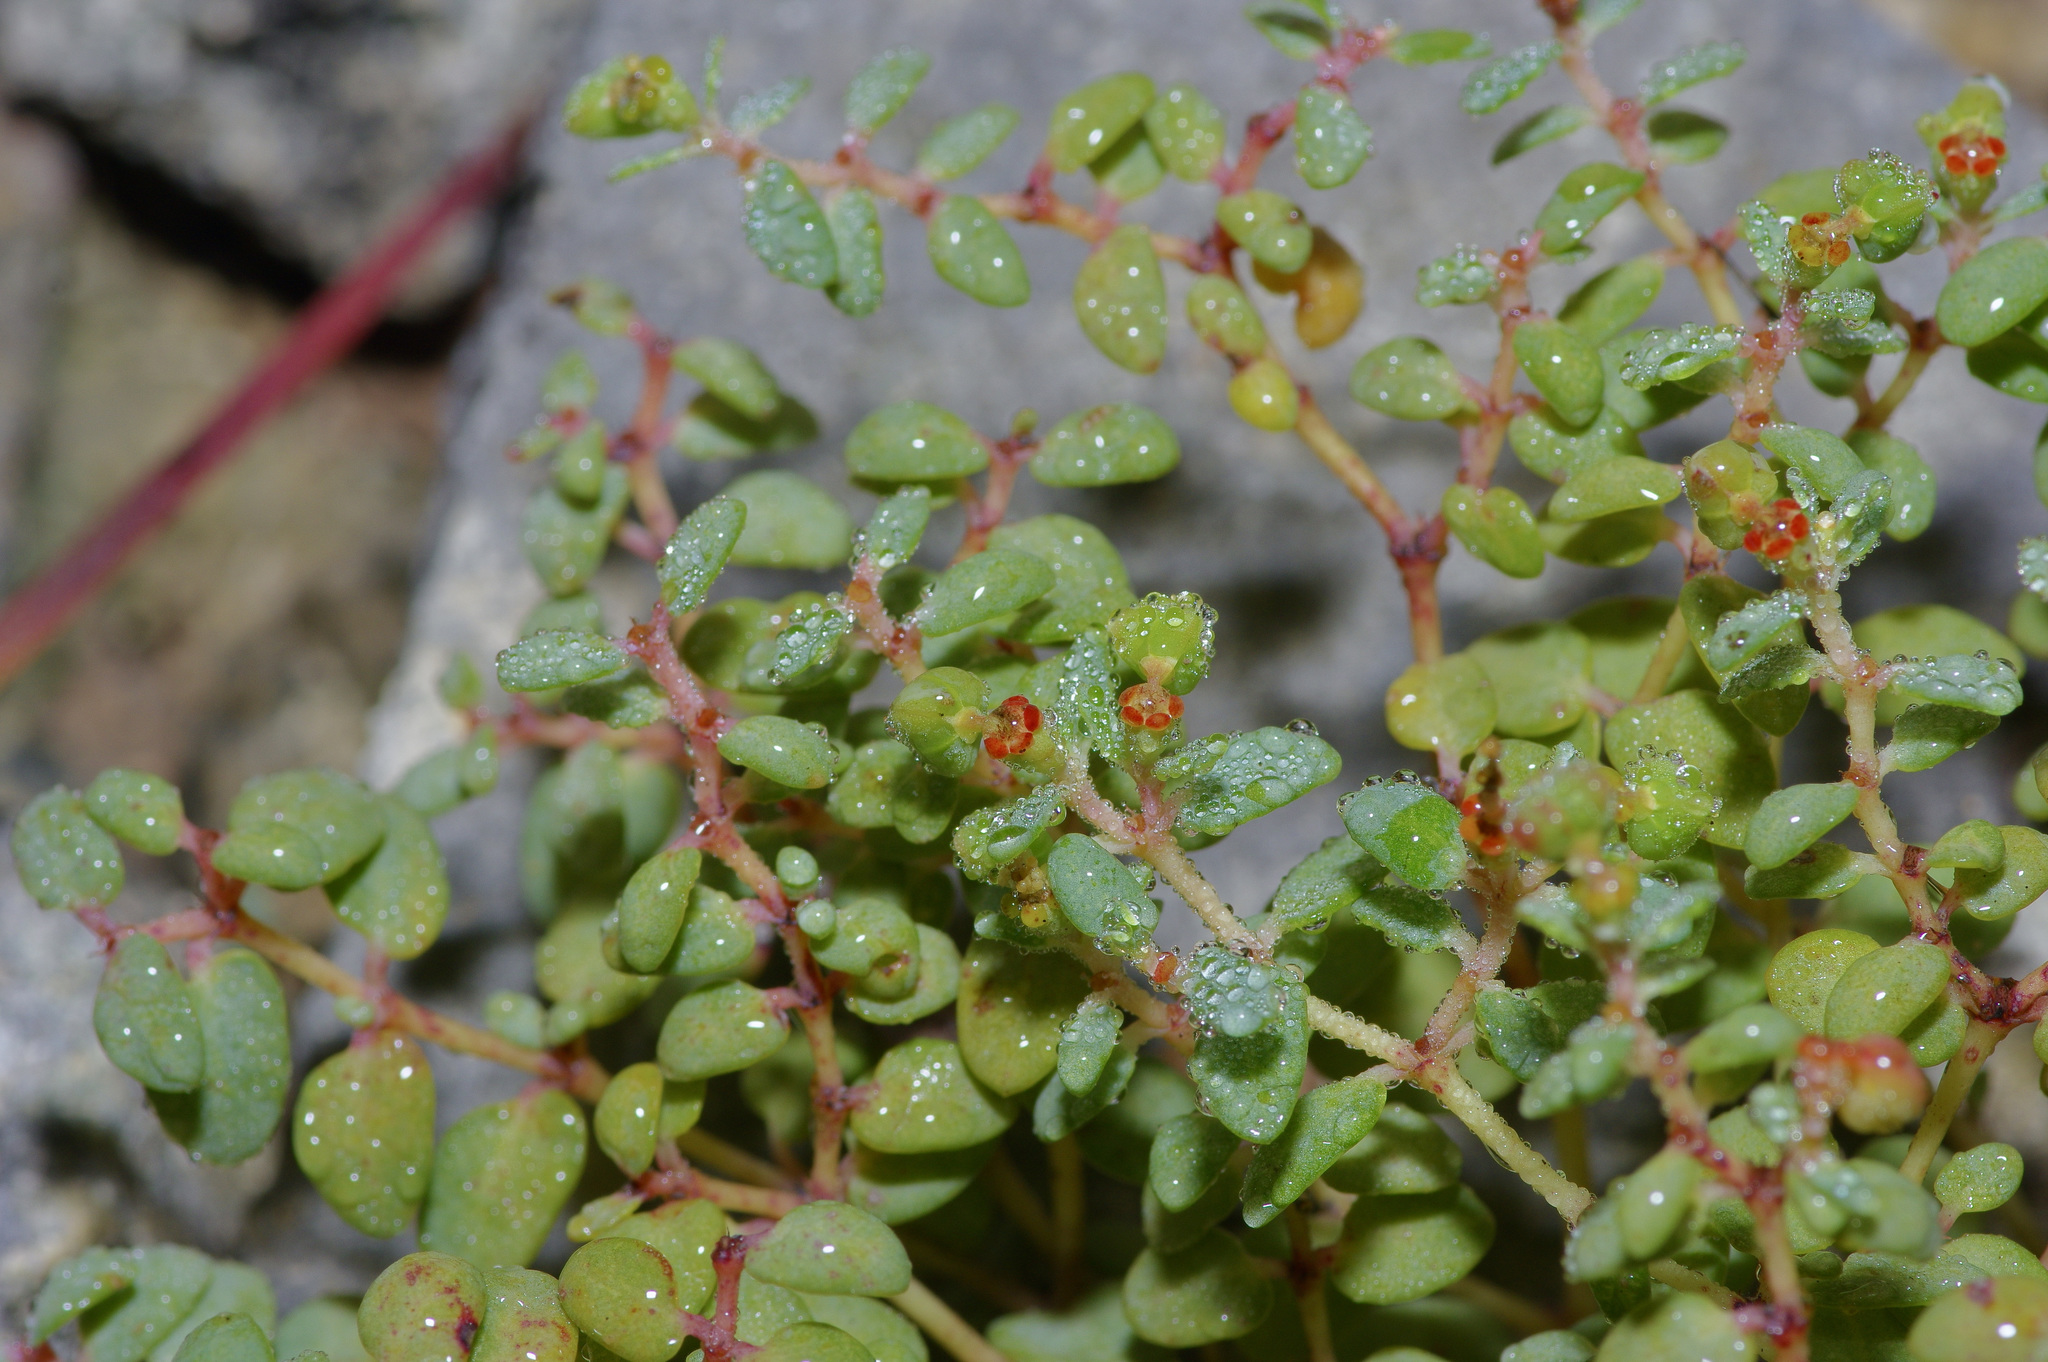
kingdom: Plantae
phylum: Tracheophyta
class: Magnoliopsida
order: Malpighiales
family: Euphorbiaceae
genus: Euphorbia
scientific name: Euphorbia fendleri
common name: Fendler's euphorbia
